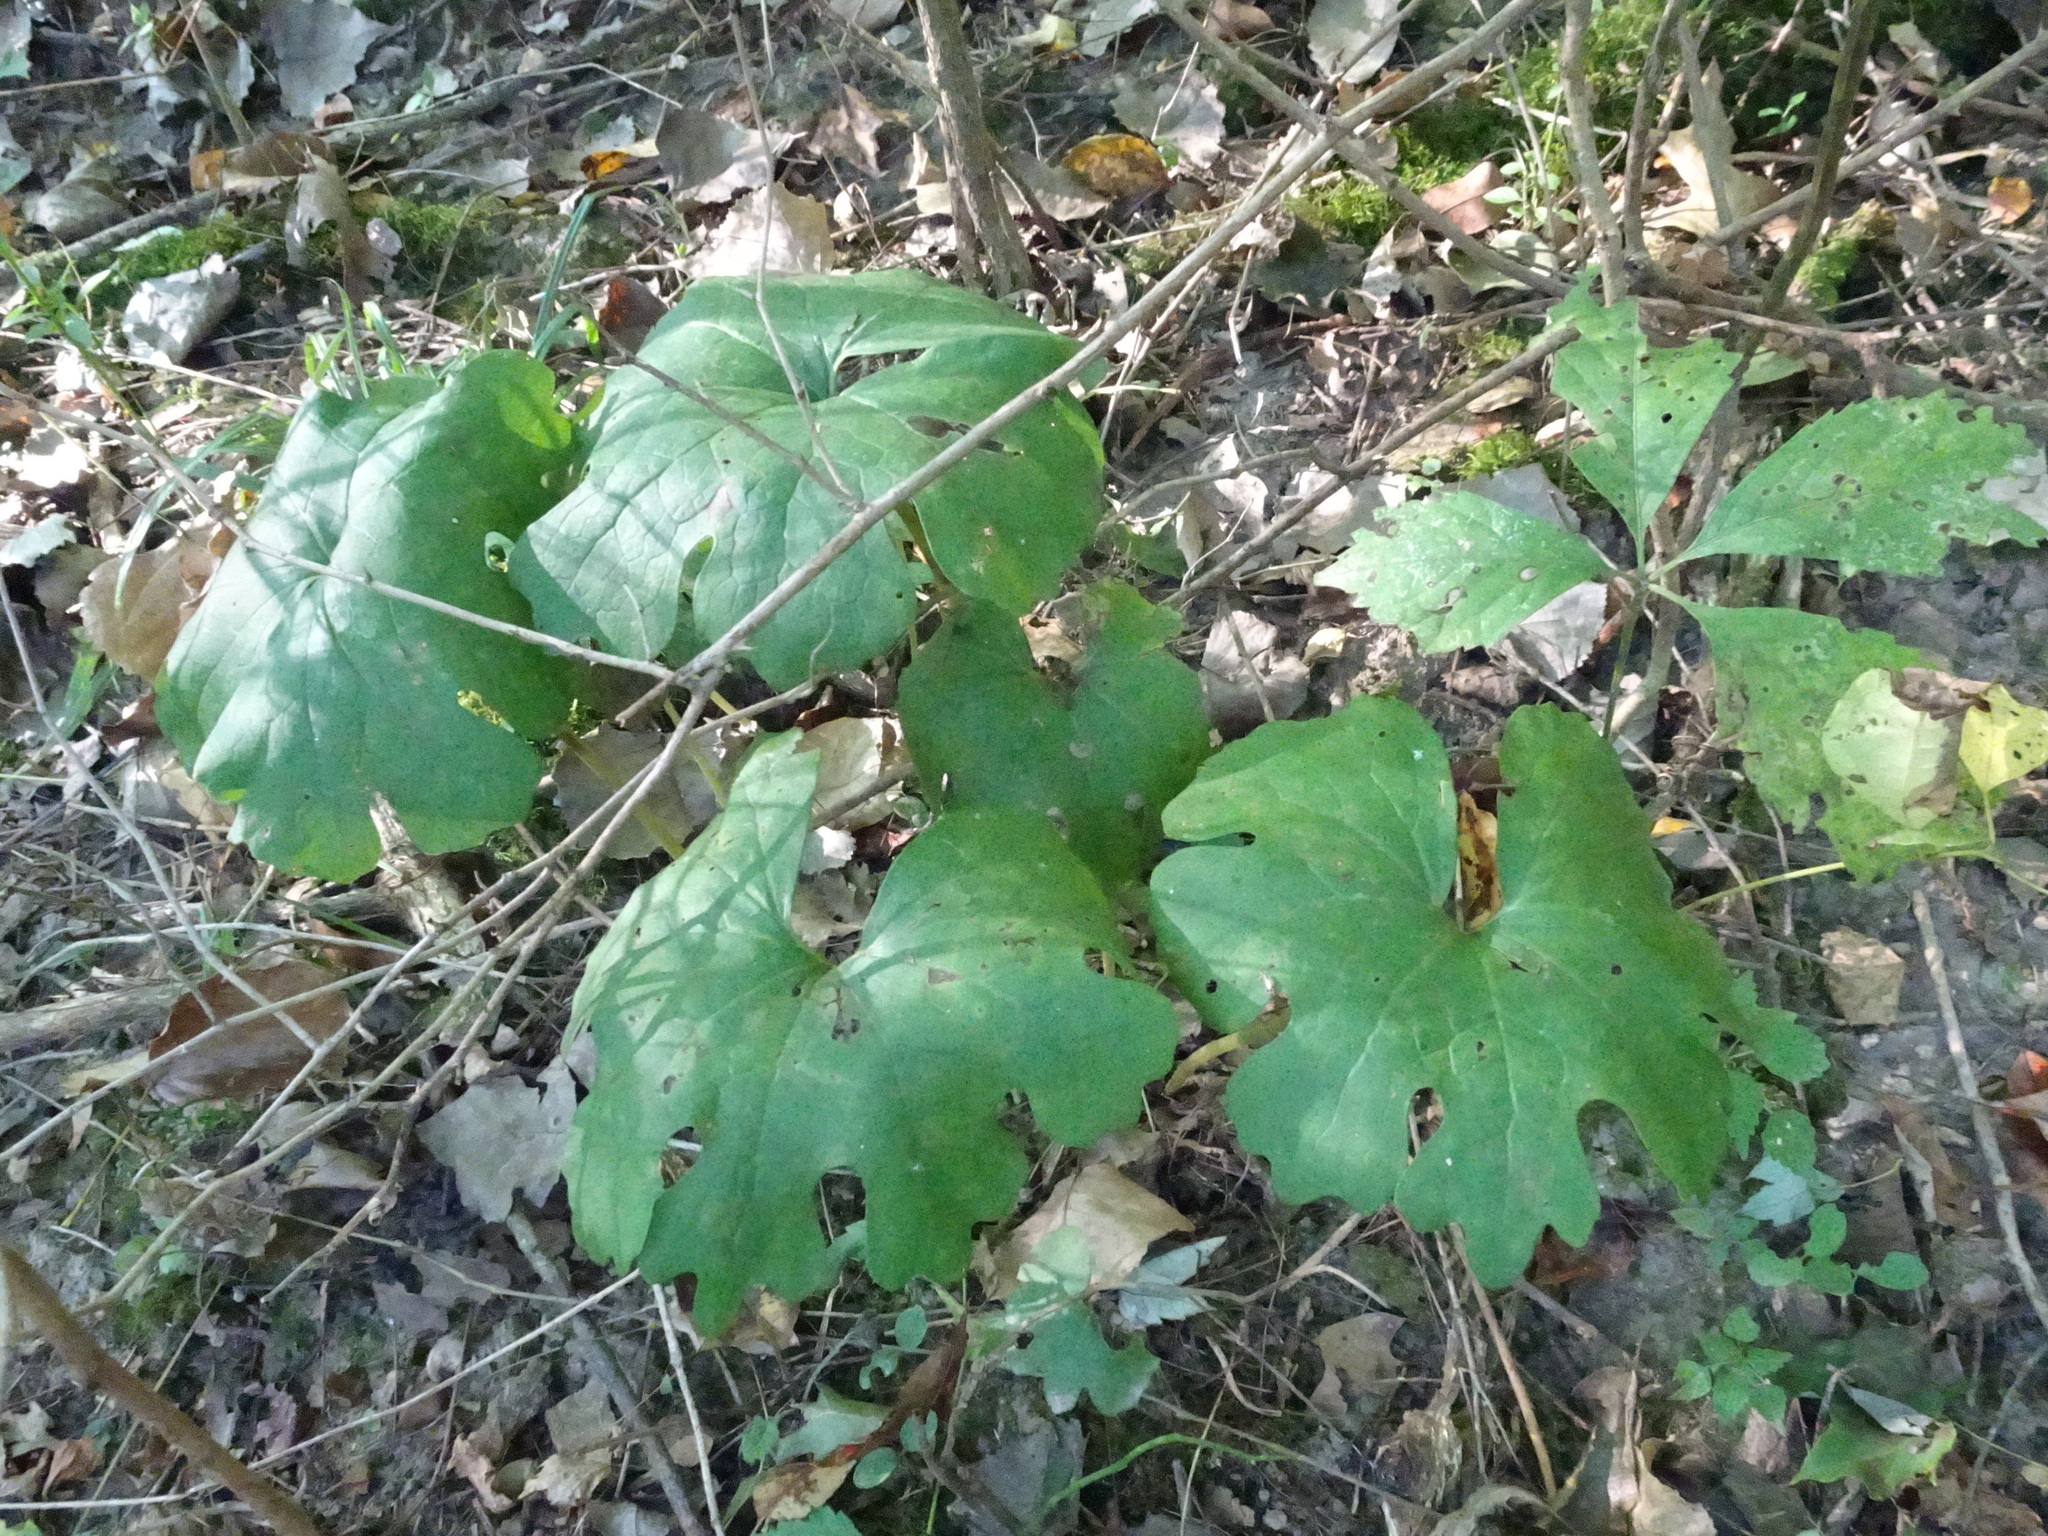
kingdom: Plantae
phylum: Tracheophyta
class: Magnoliopsida
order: Ranunculales
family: Papaveraceae
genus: Sanguinaria
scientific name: Sanguinaria canadensis
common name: Bloodroot
